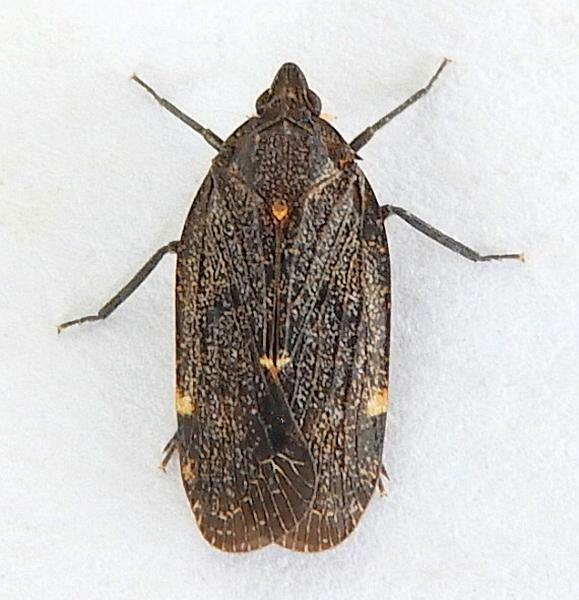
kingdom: Animalia
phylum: Arthropoda
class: Insecta
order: Hemiptera
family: Achilidae
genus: Cixidia
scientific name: Cixidia opaca
